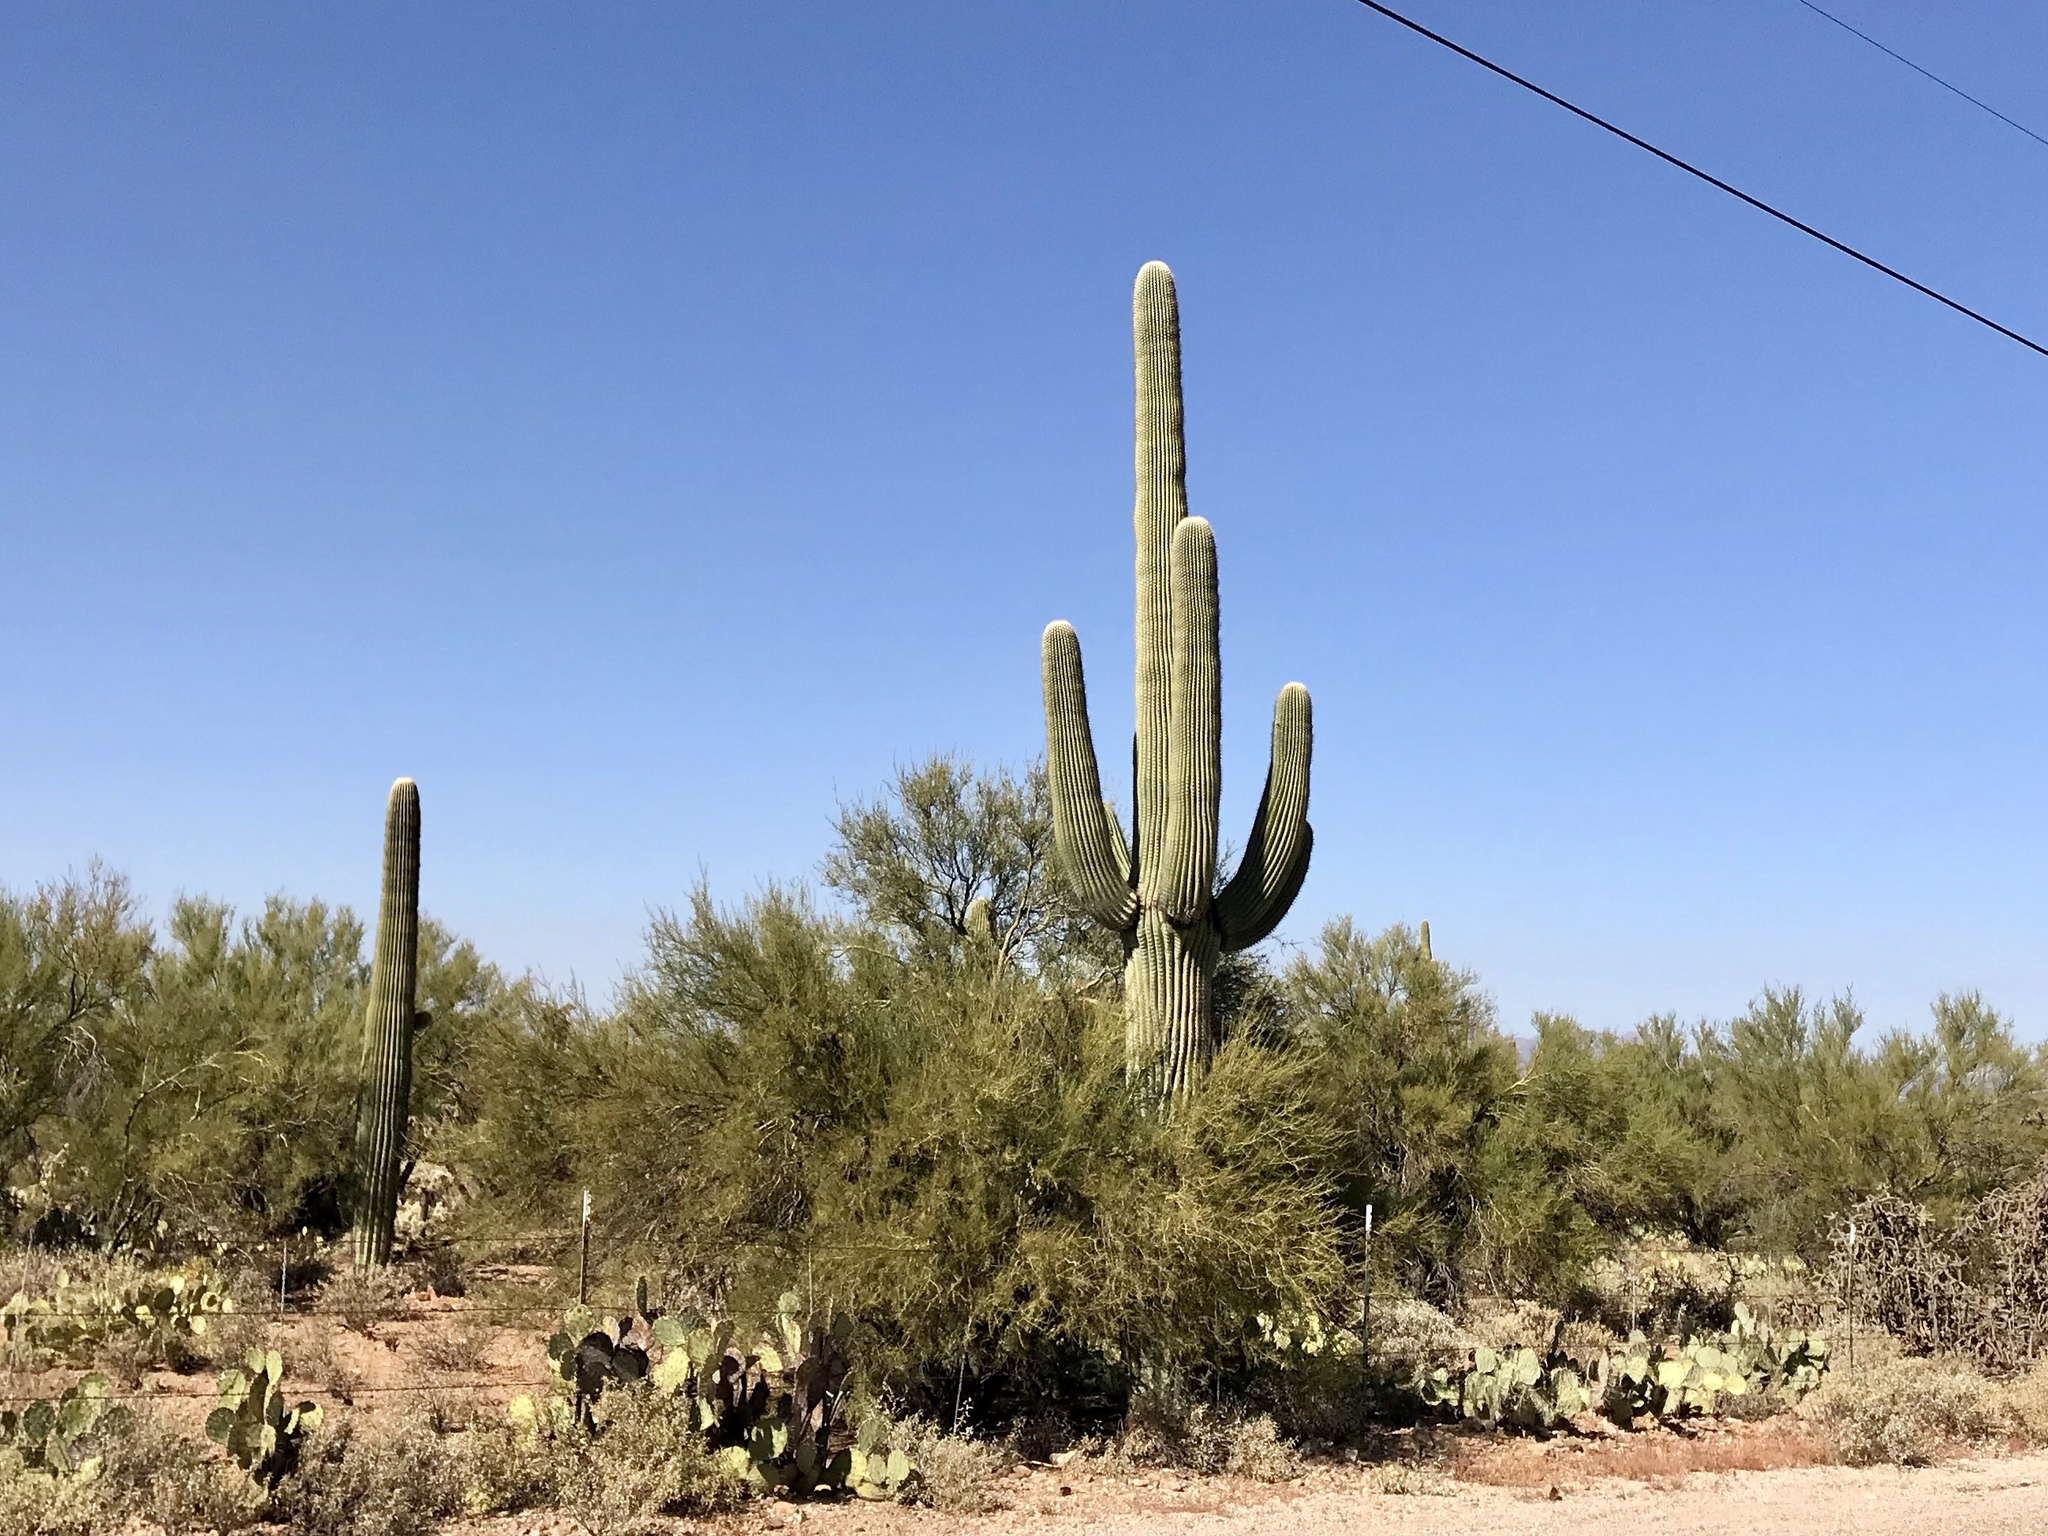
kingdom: Plantae
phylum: Tracheophyta
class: Magnoliopsida
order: Caryophyllales
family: Cactaceae
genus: Carnegiea
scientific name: Carnegiea gigantea
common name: Saguaro
